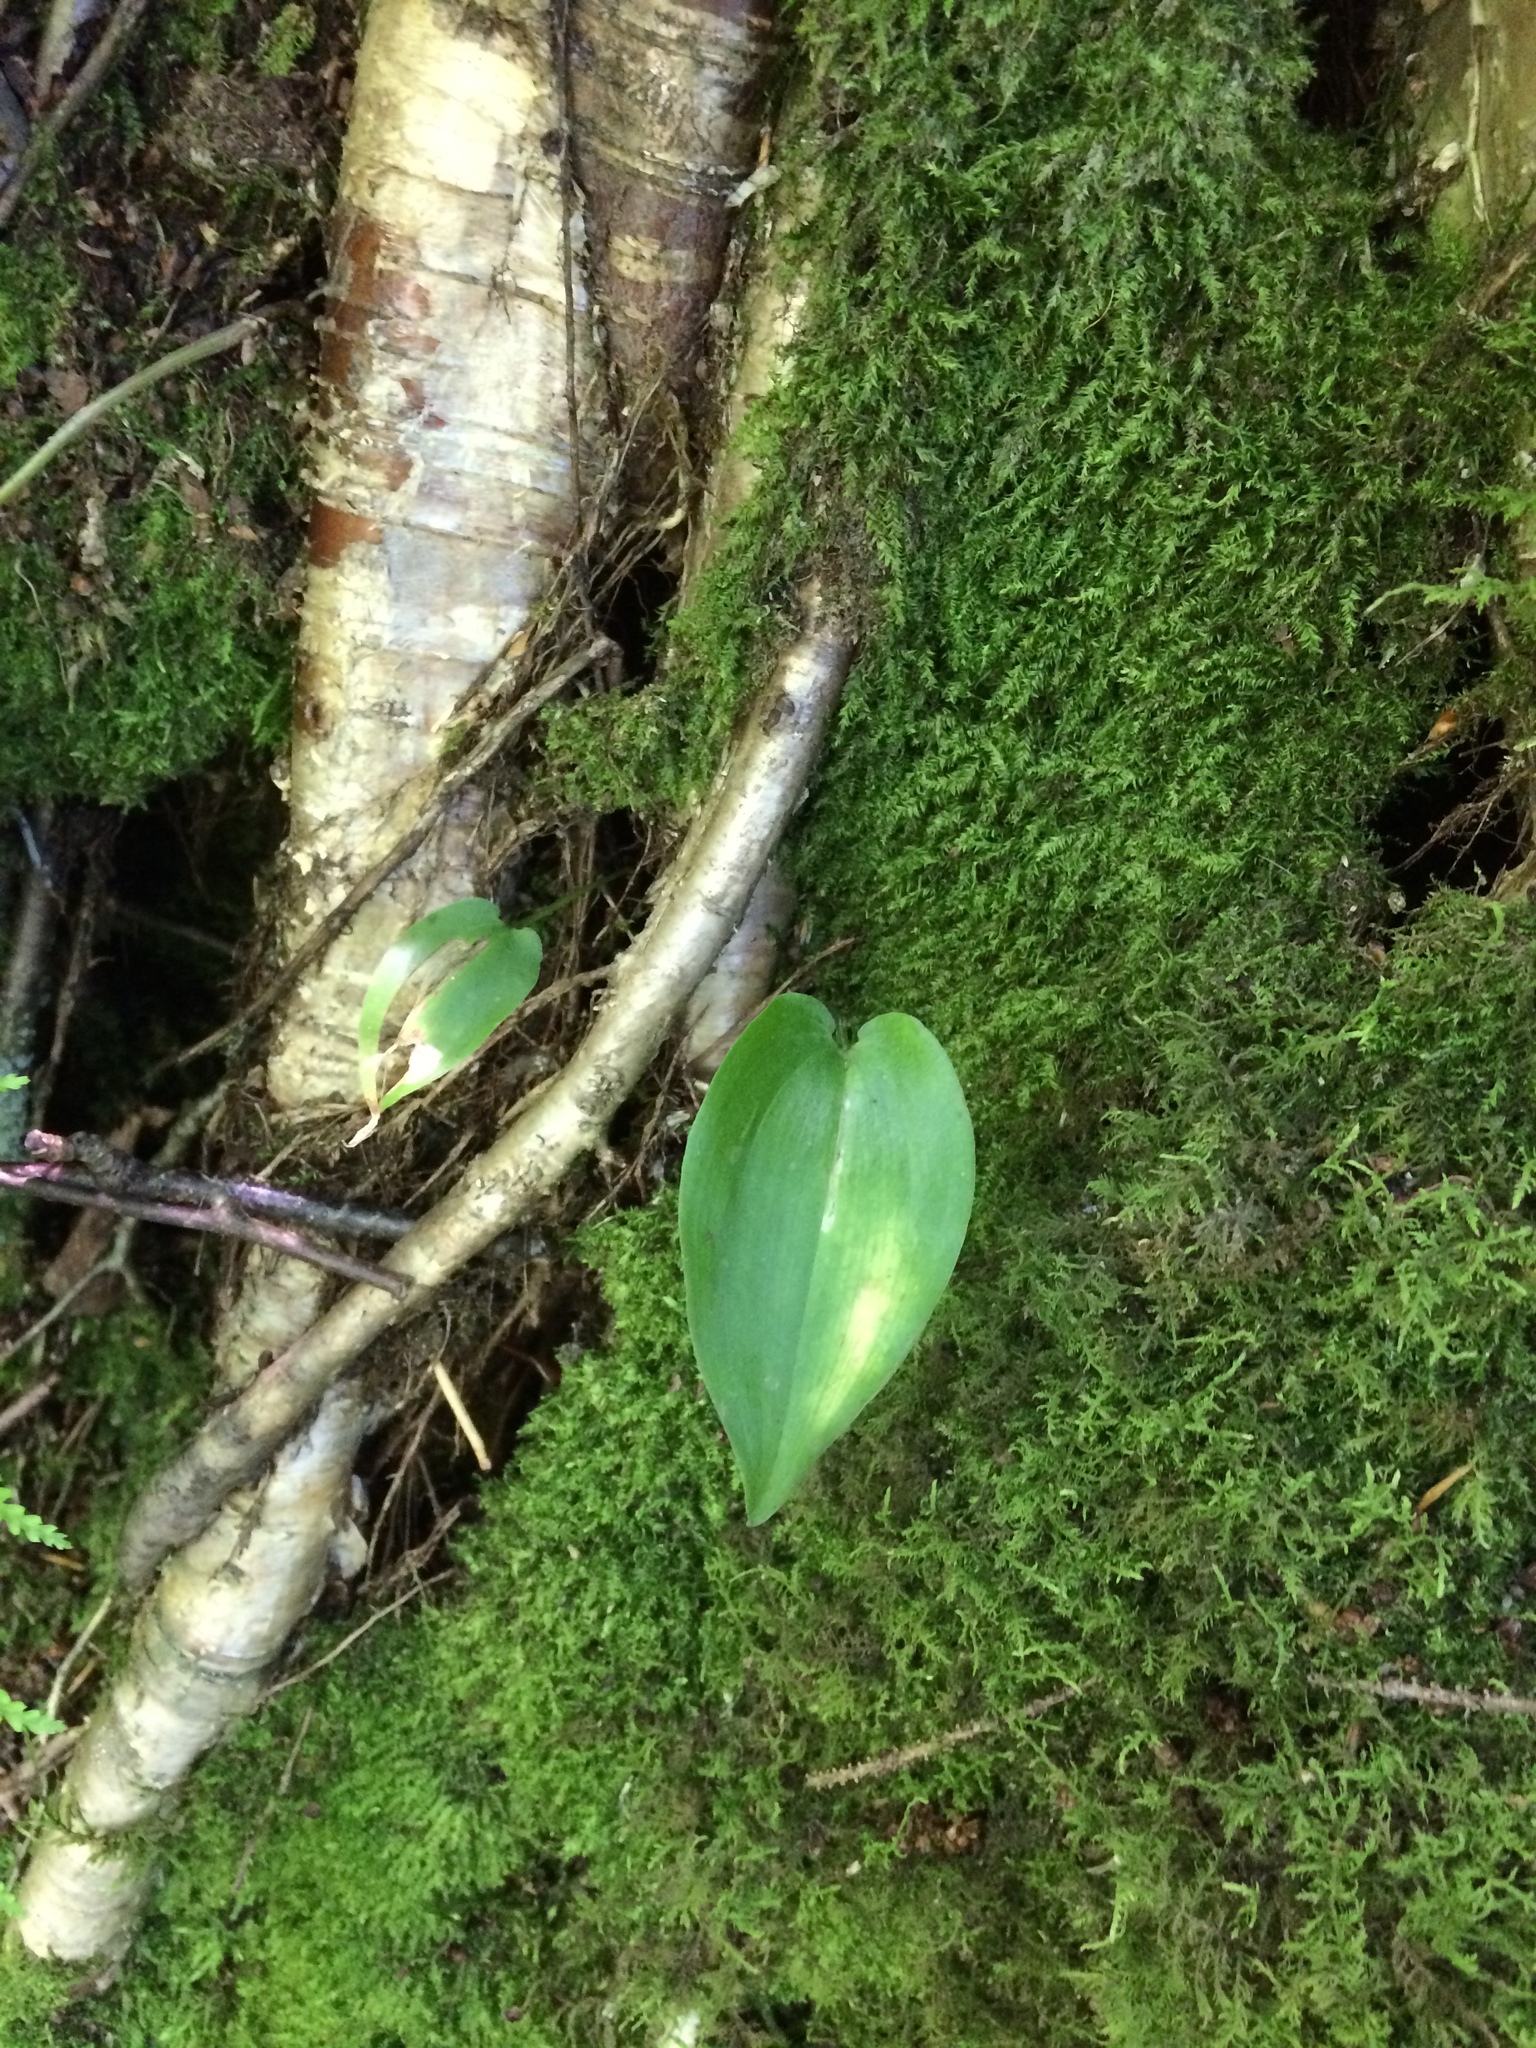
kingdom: Plantae
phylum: Tracheophyta
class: Liliopsida
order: Asparagales
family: Asparagaceae
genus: Maianthemum
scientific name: Maianthemum canadense
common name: False lily-of-the-valley
